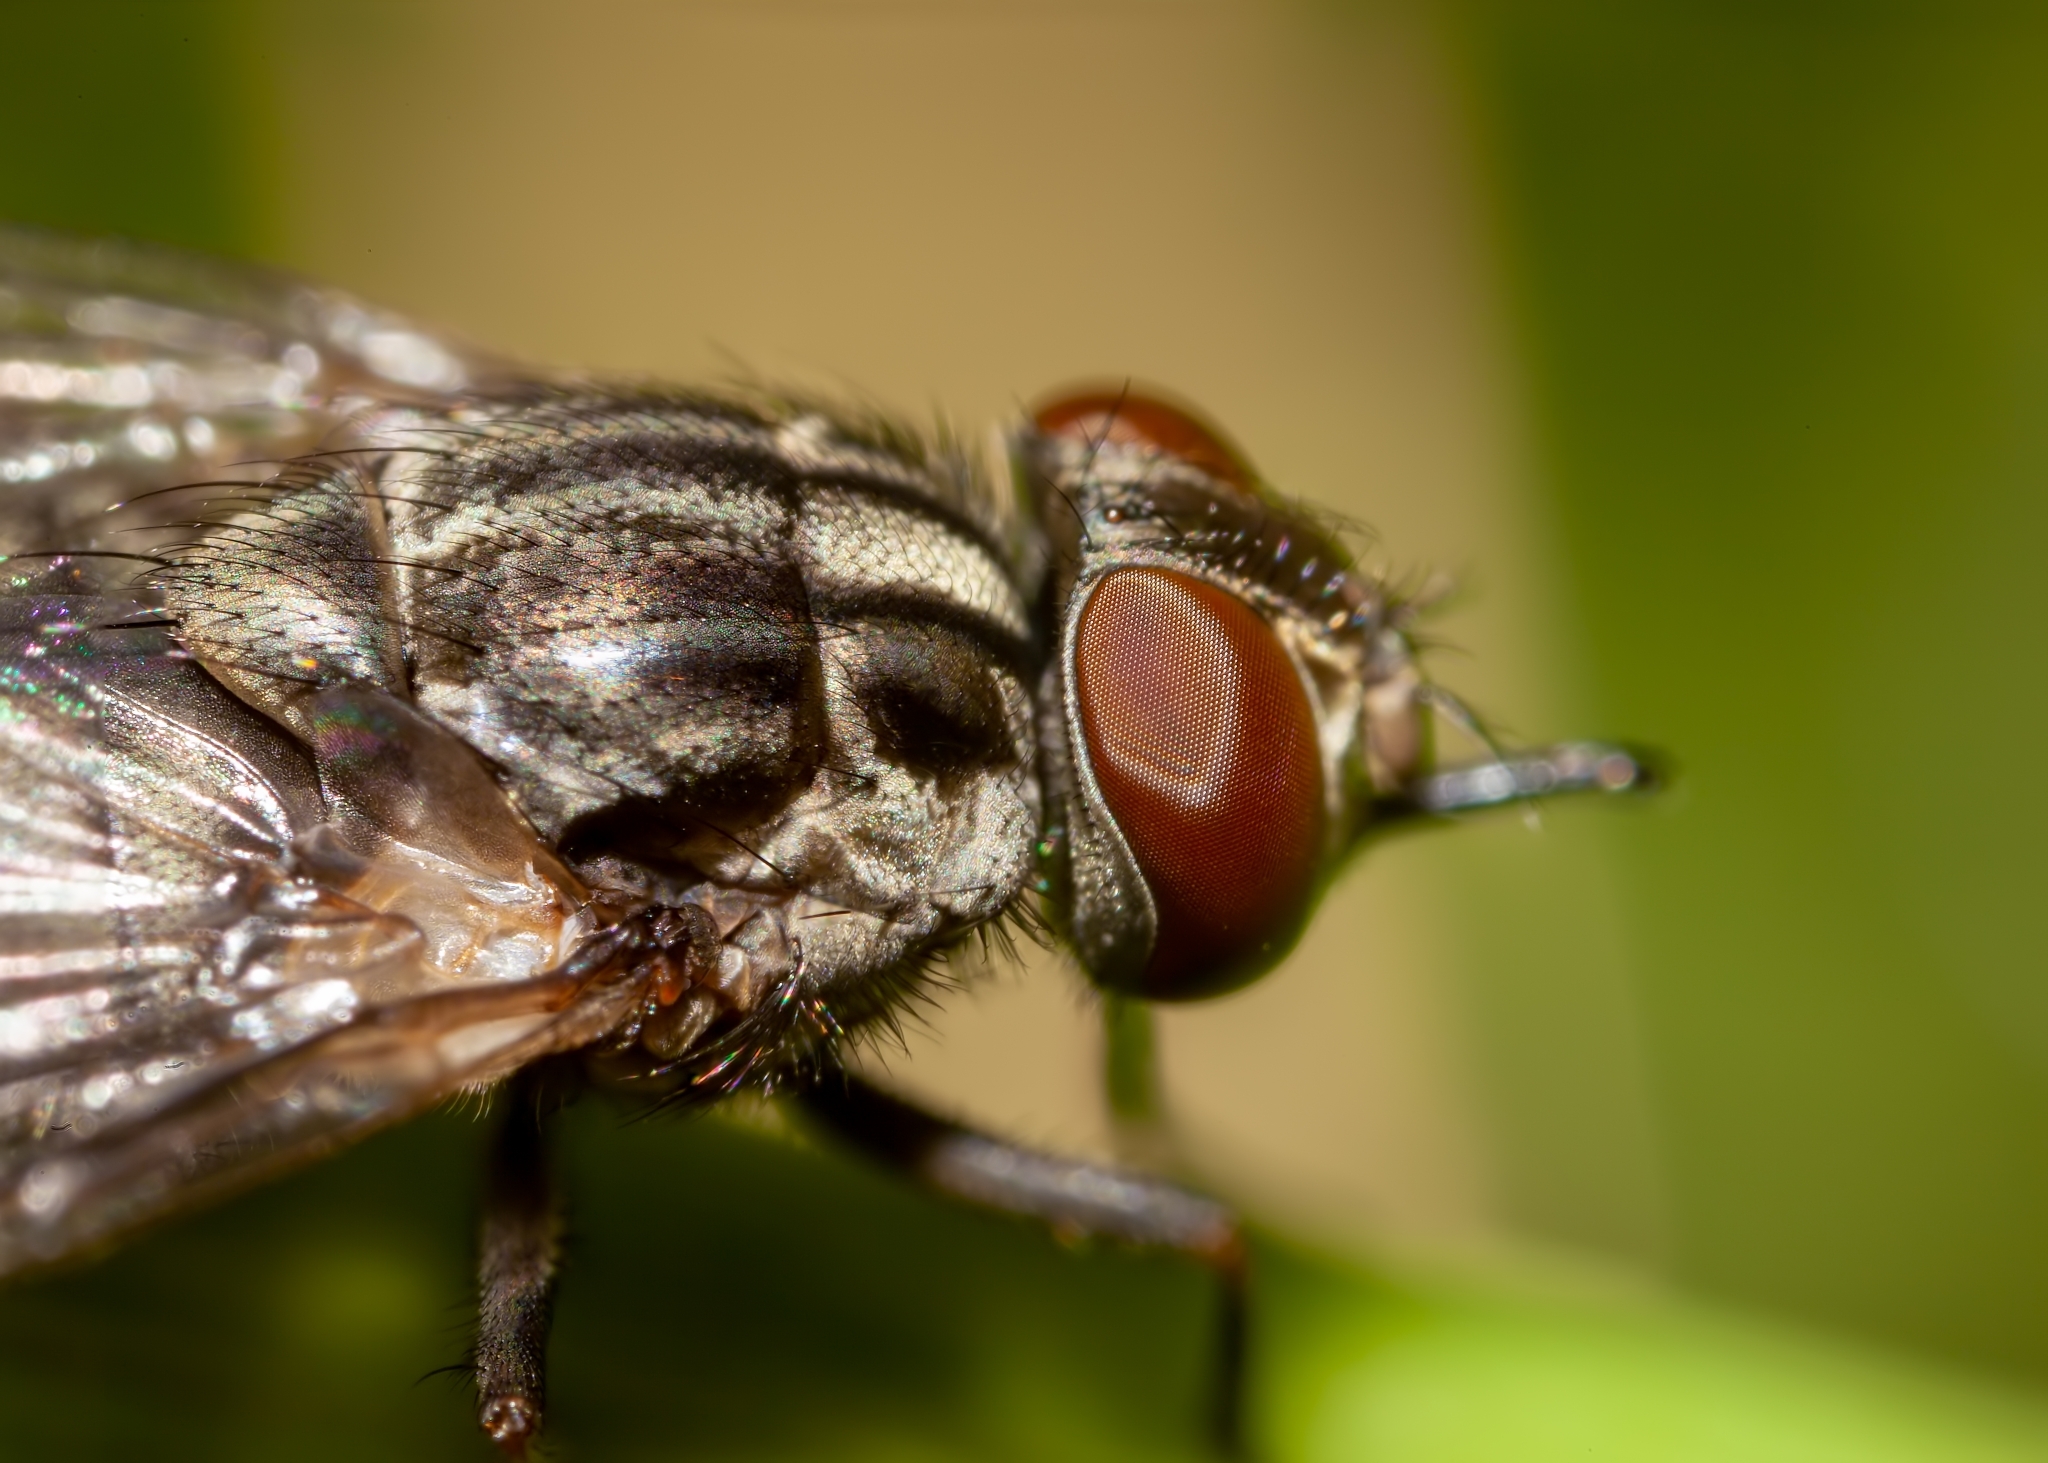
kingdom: Animalia
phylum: Arthropoda
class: Insecta
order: Diptera
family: Muscidae
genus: Stomoxys
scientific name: Stomoxys calcitrans
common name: Stable fly
